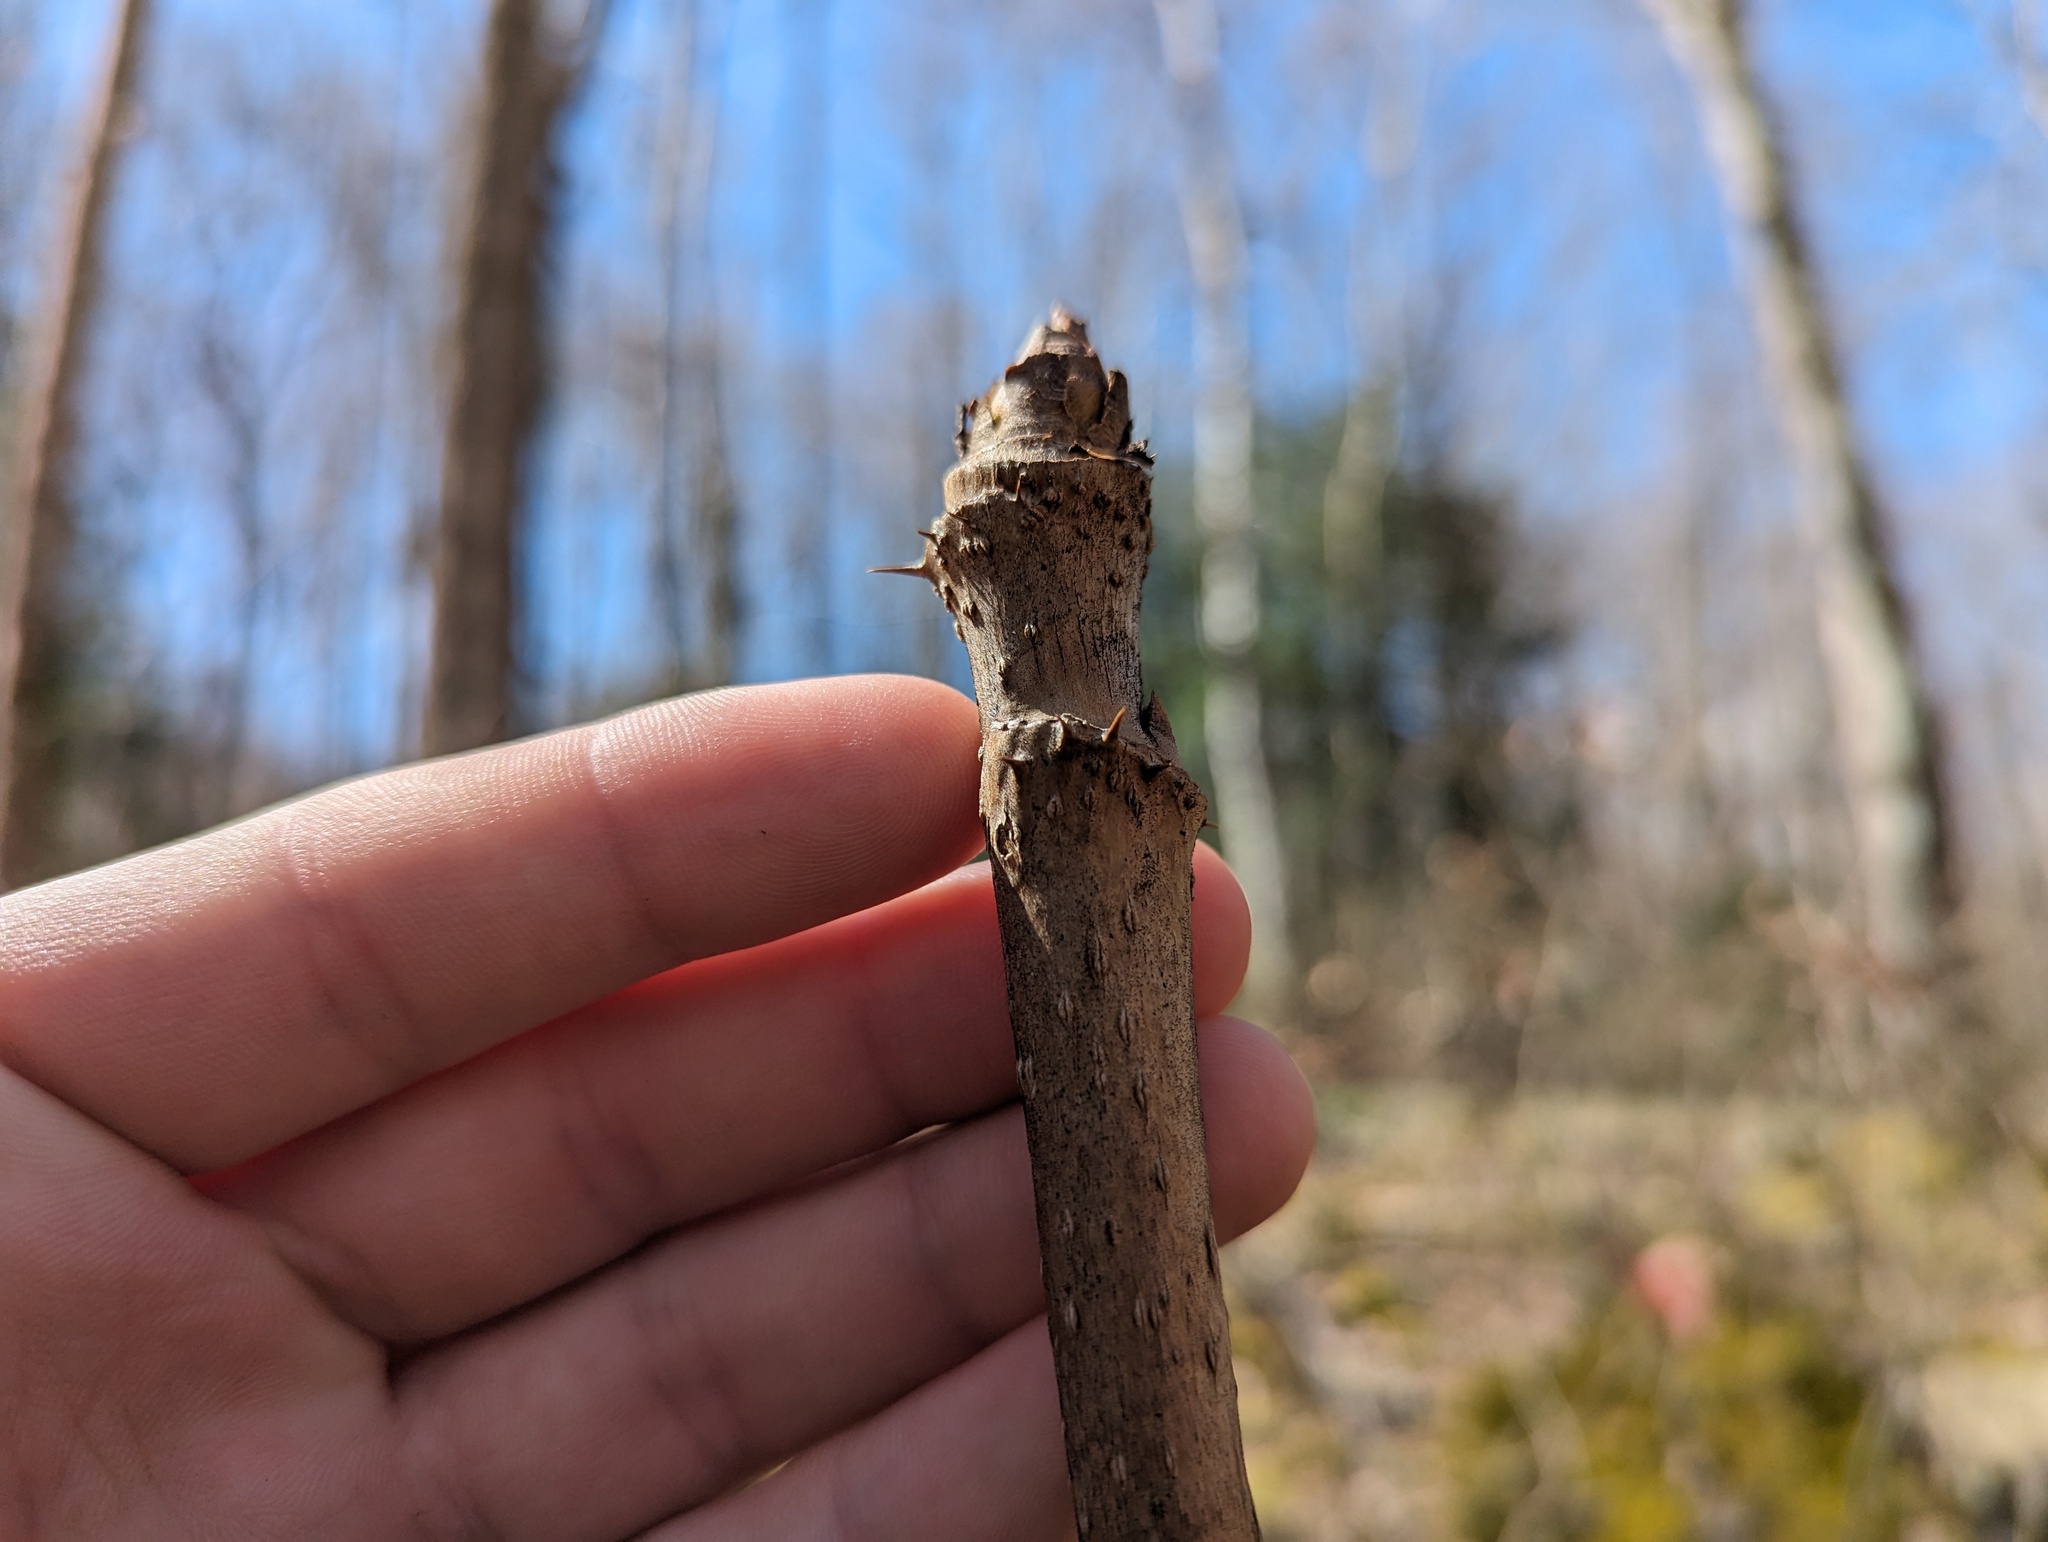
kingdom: Plantae
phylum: Tracheophyta
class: Magnoliopsida
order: Apiales
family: Araliaceae
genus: Aralia
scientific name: Aralia spinosa
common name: Hercules'-club
